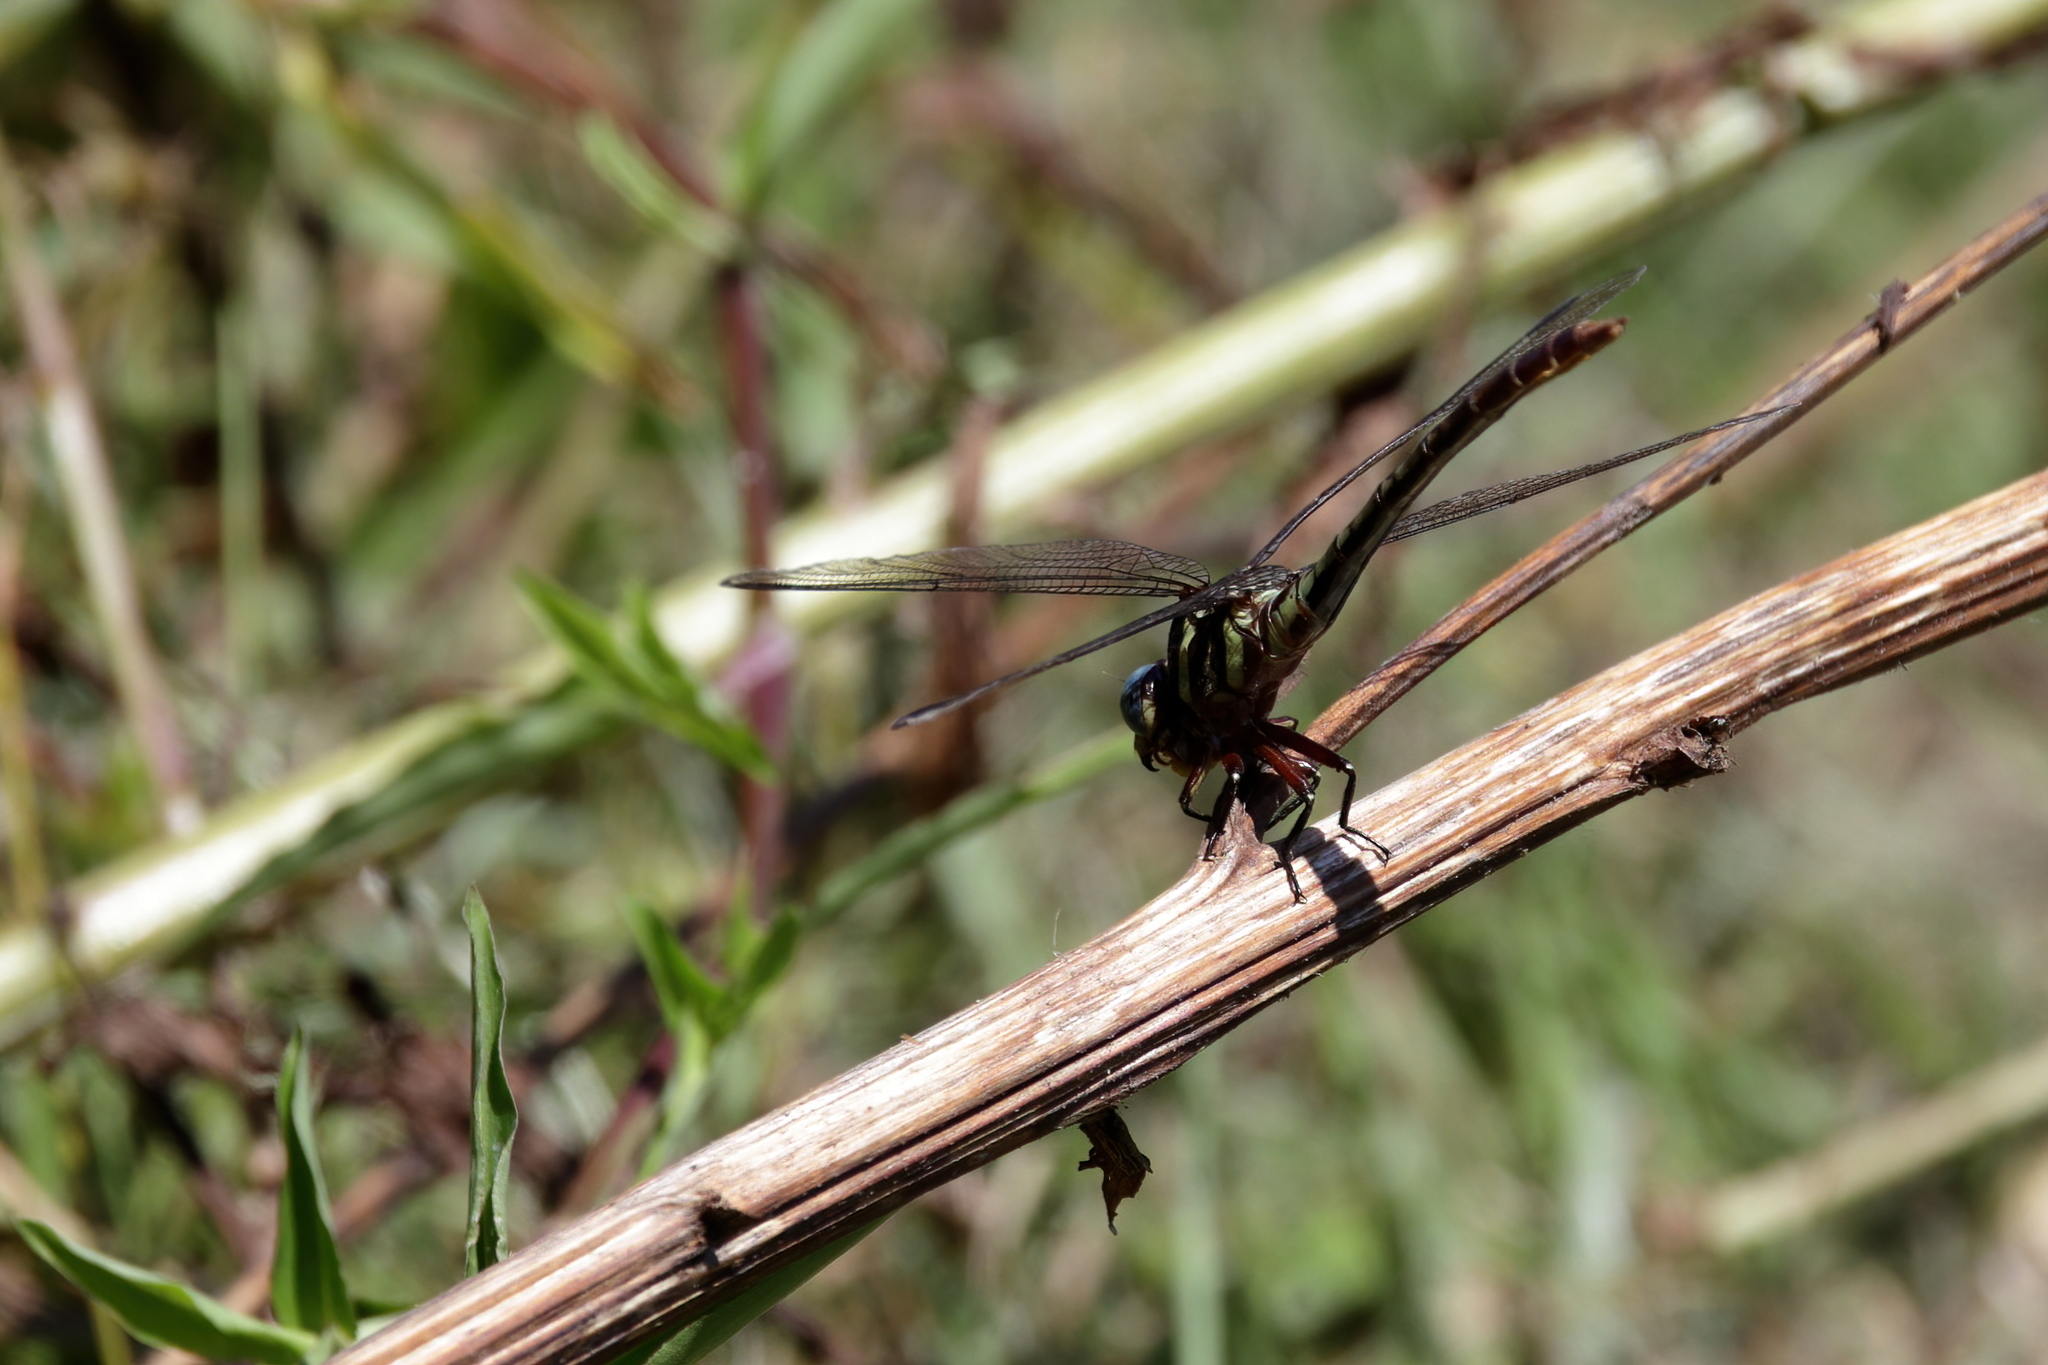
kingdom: Animalia
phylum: Arthropoda
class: Insecta
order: Odonata
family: Gomphidae
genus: Aphylla
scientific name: Aphylla williamsoni
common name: Two-striped forceptail
